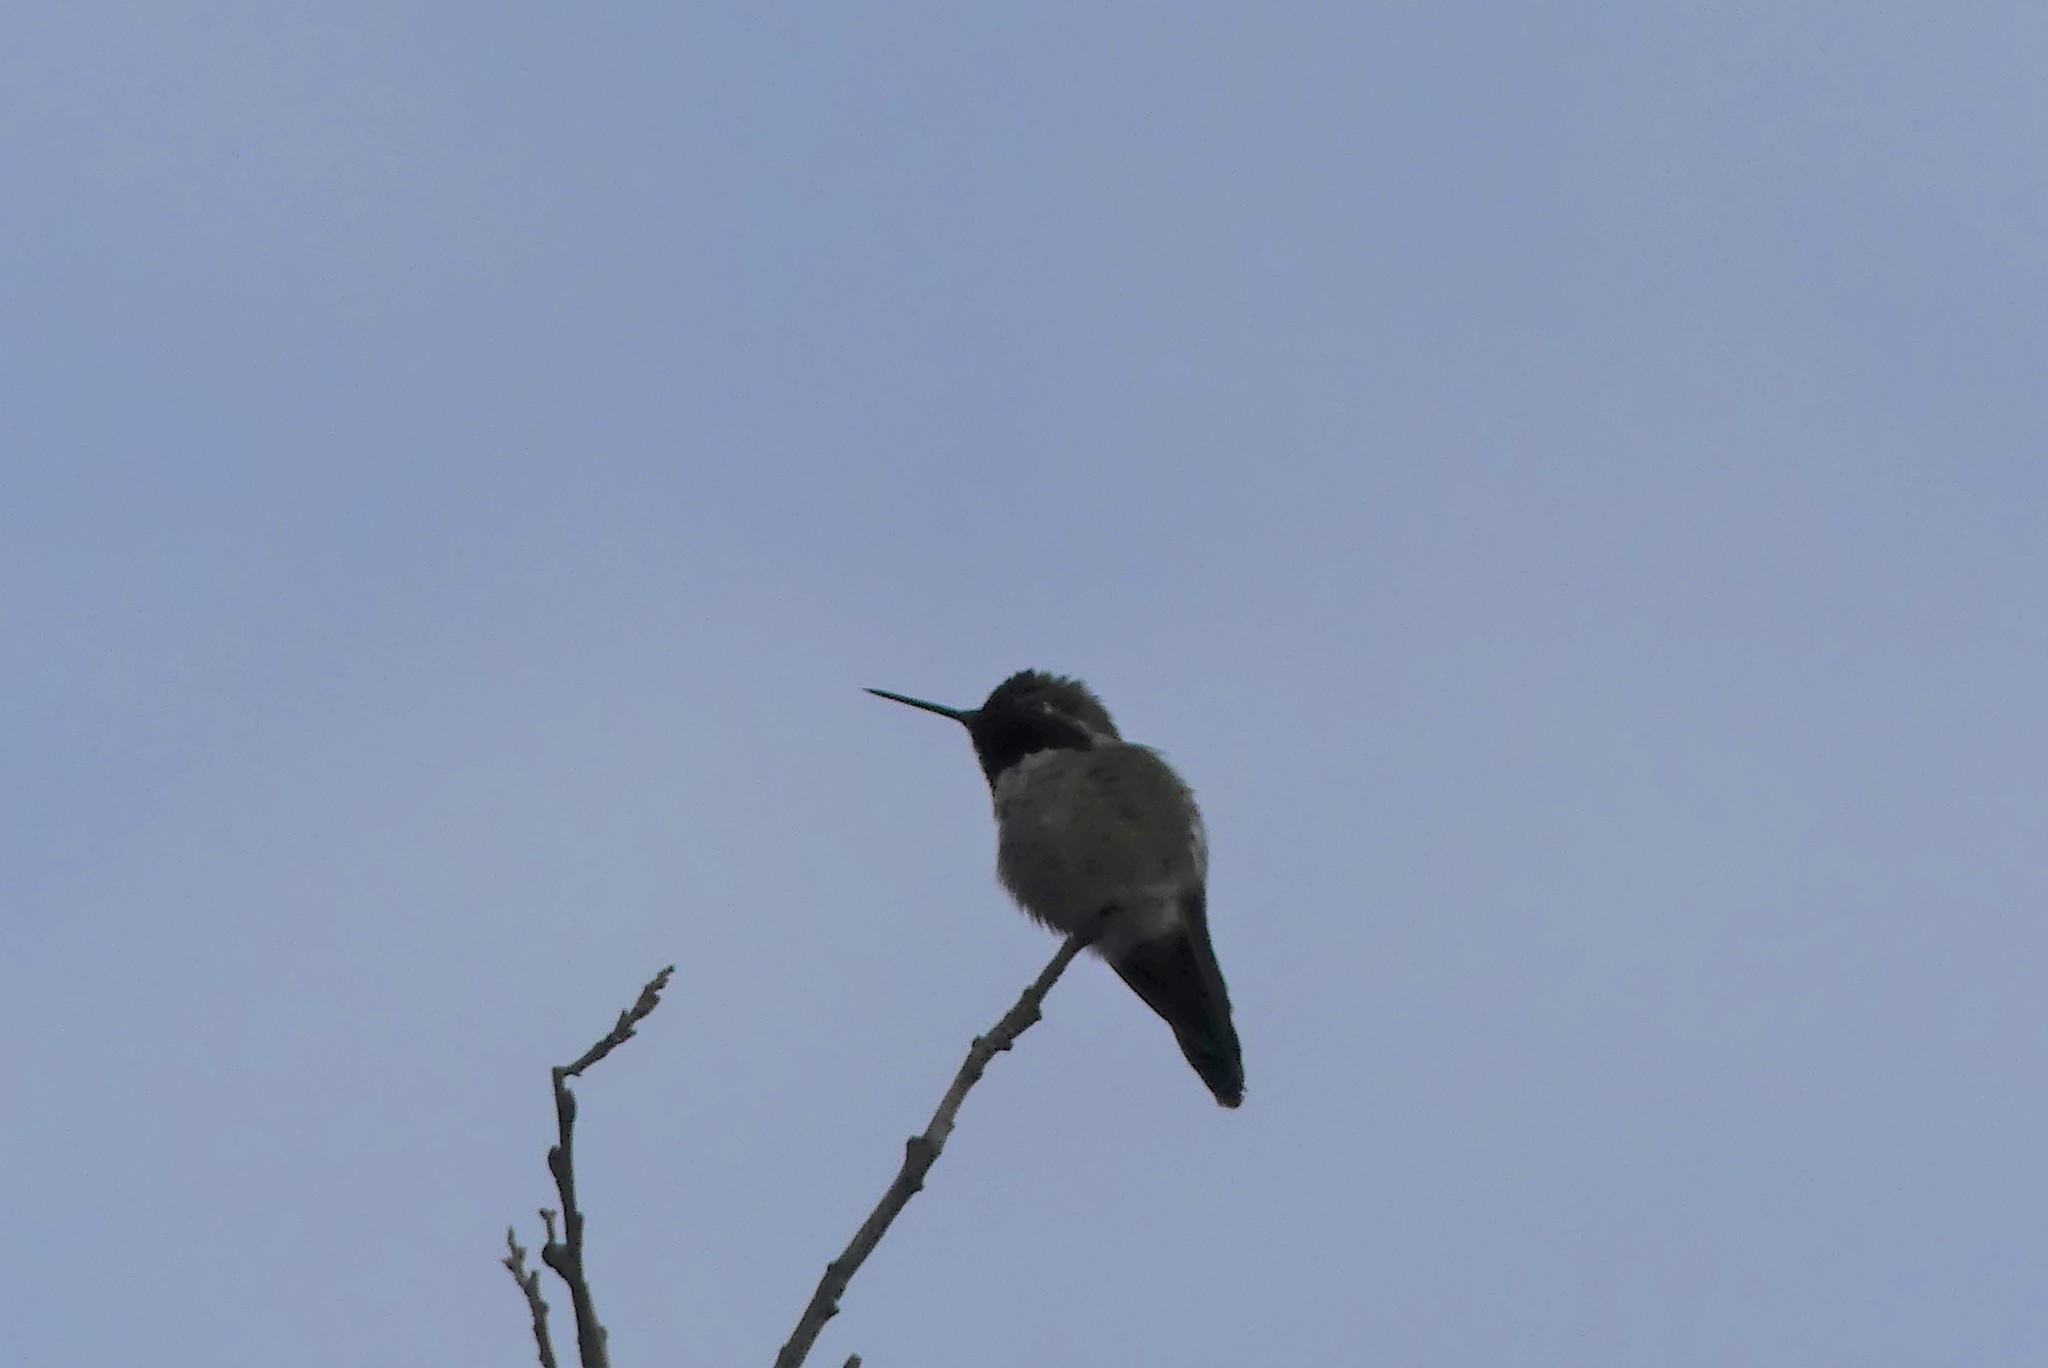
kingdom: Animalia
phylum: Chordata
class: Aves
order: Apodiformes
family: Trochilidae
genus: Calypte
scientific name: Calypte anna
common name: Anna's hummingbird
